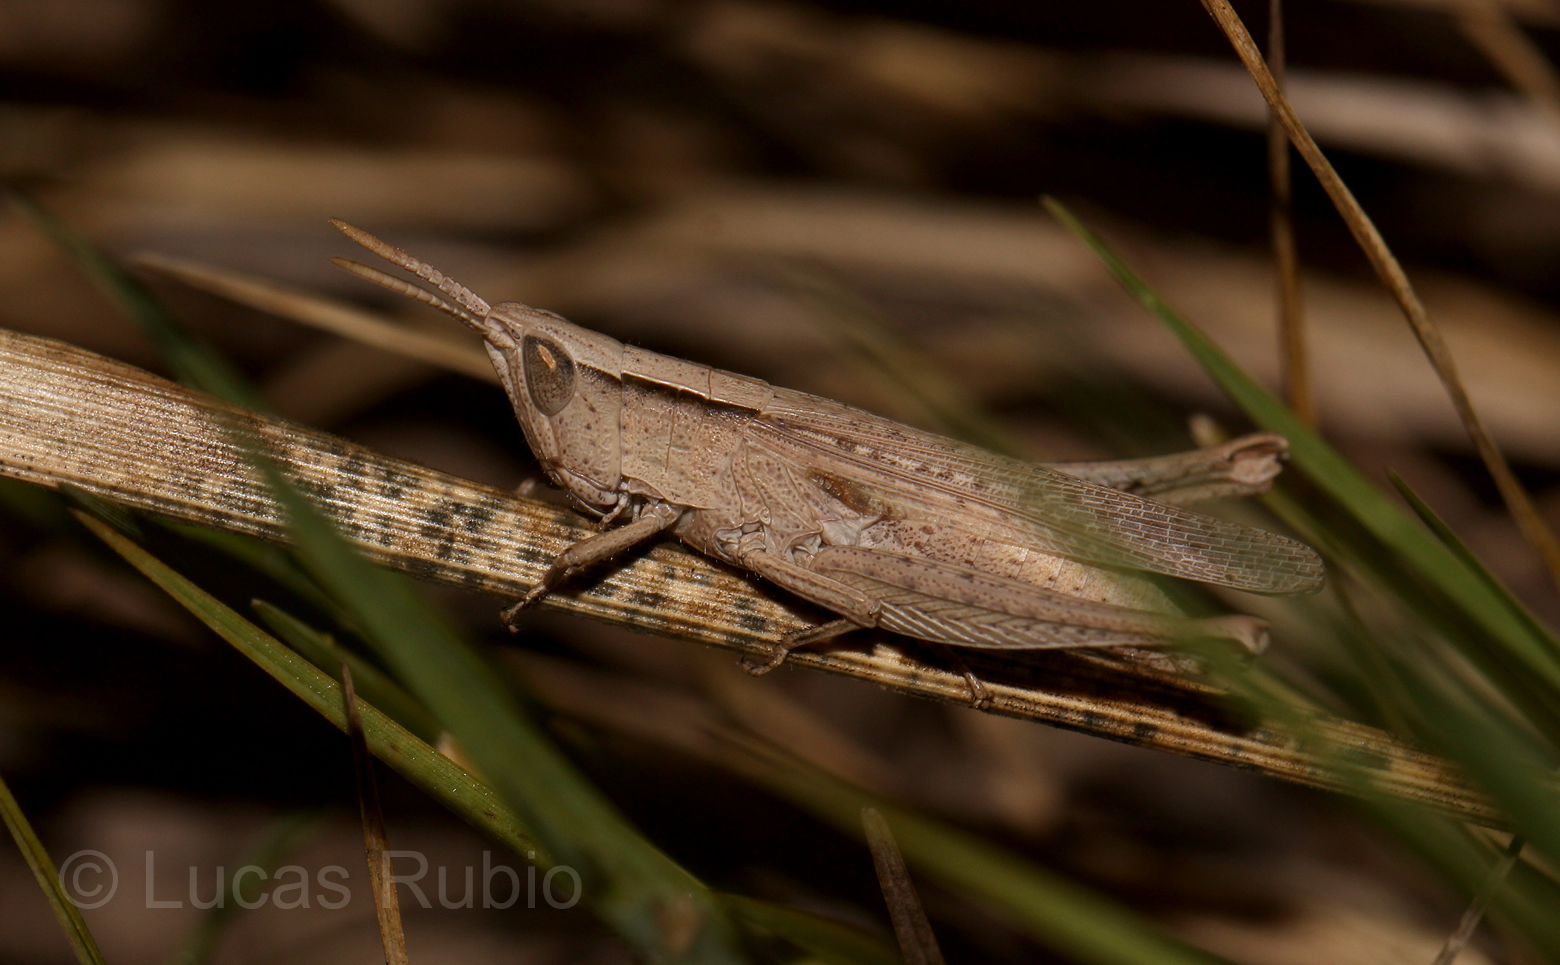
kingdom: Animalia
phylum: Arthropoda
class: Insecta
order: Orthoptera
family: Acrididae
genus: Laplatacris
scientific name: Laplatacris dispar
